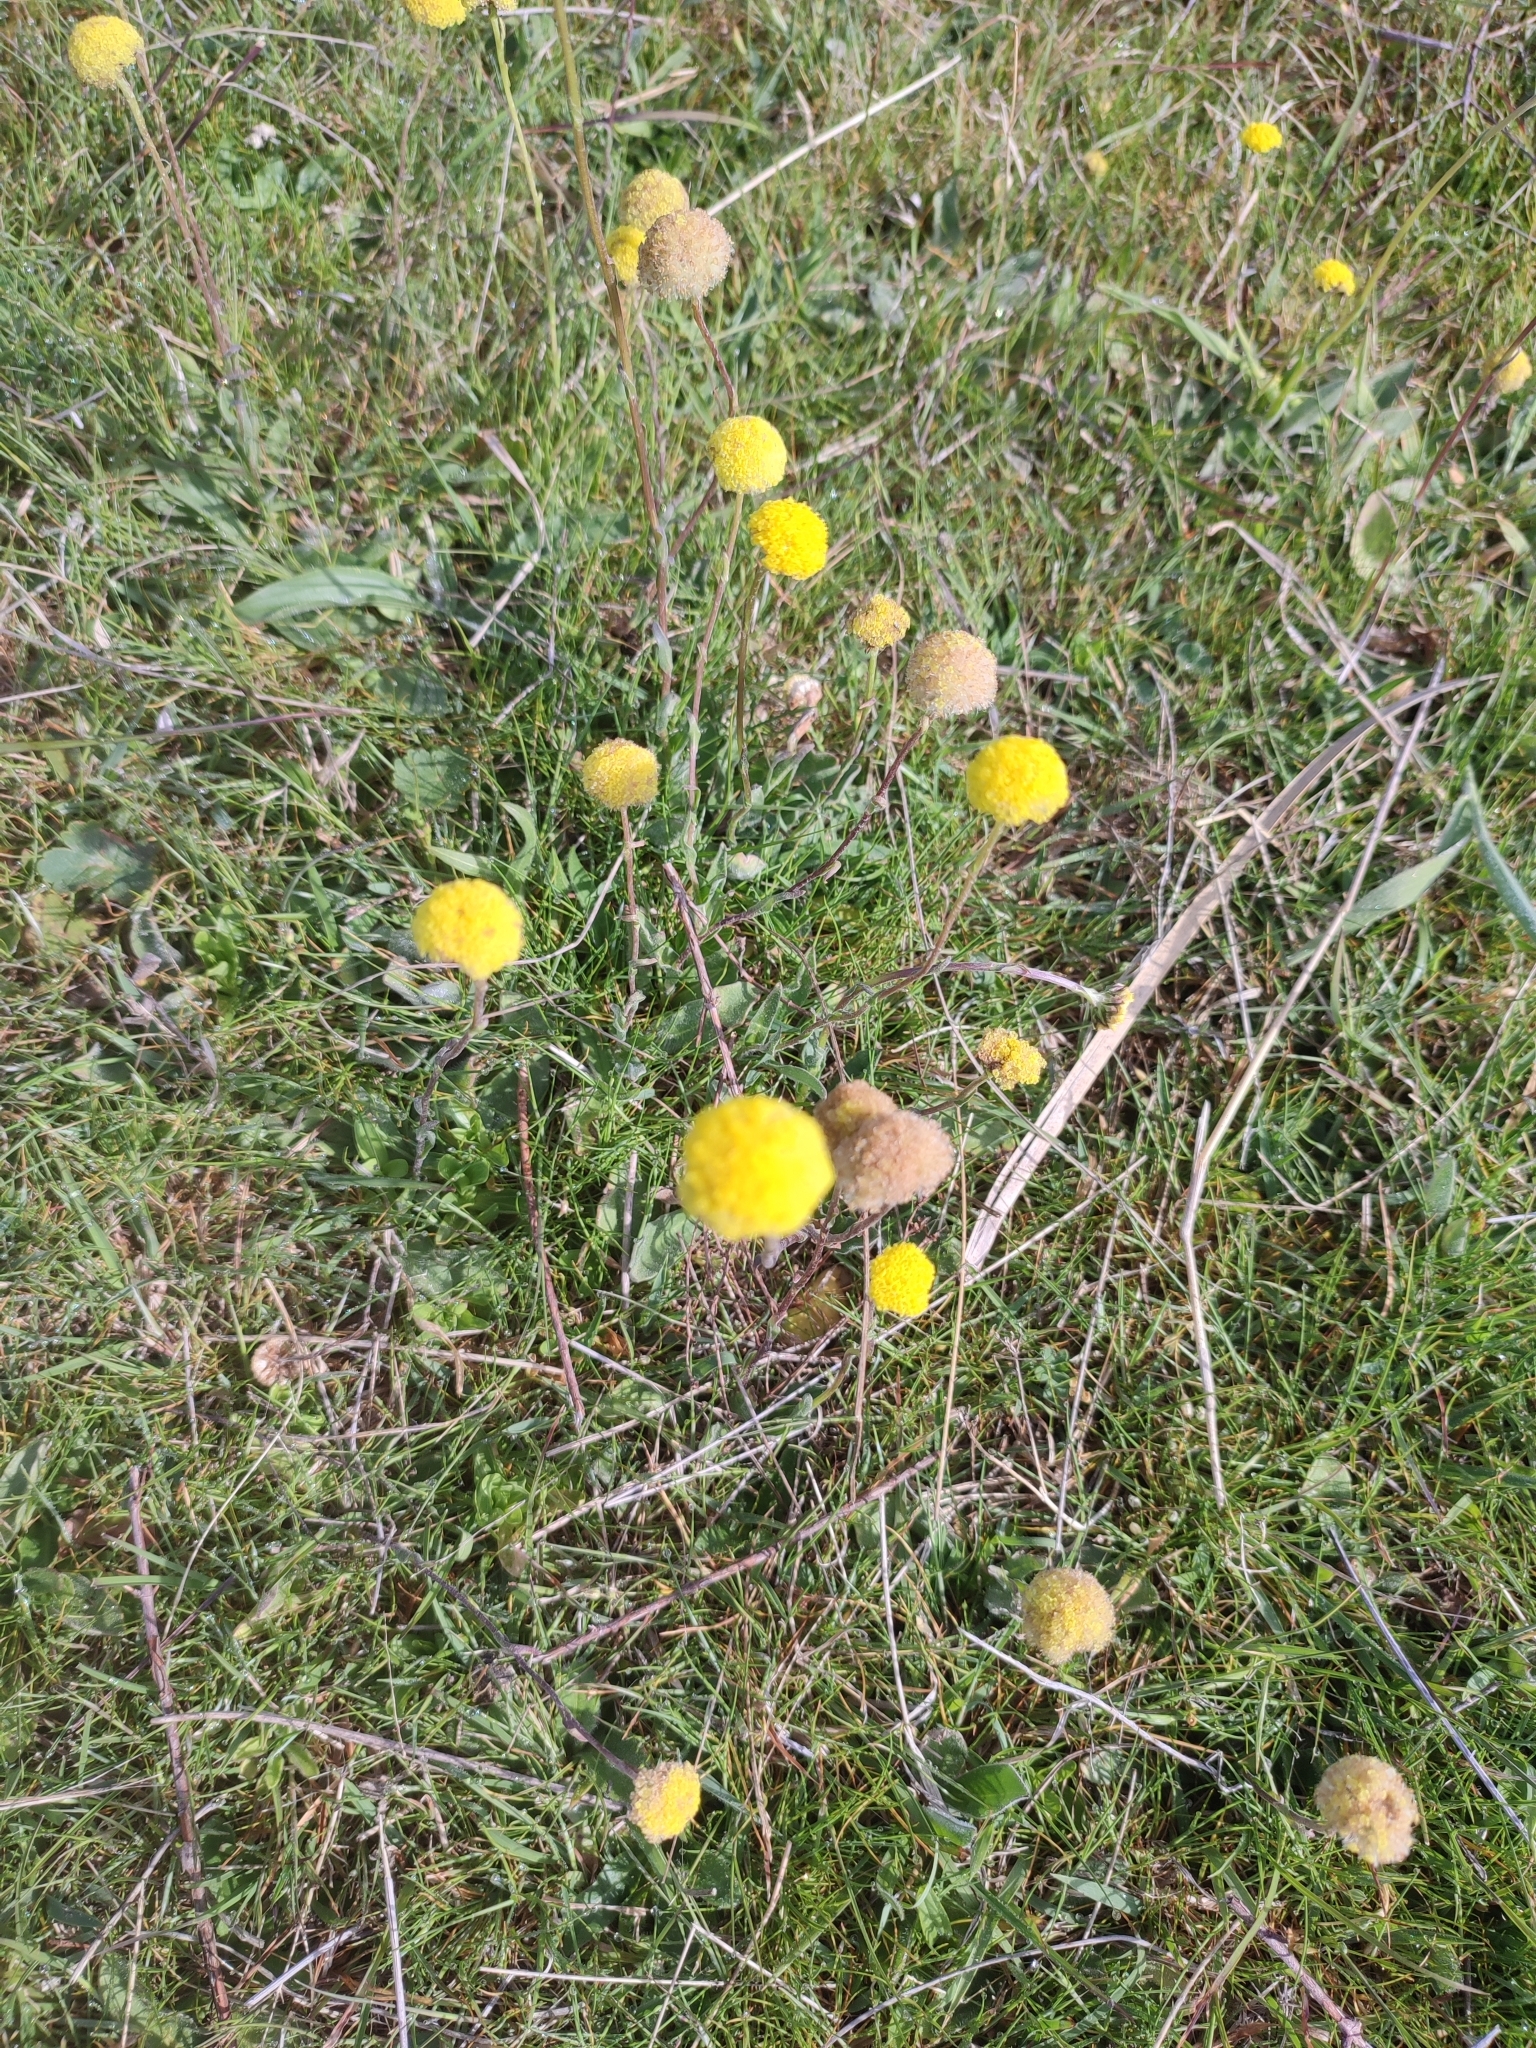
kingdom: Plantae
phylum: Tracheophyta
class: Magnoliopsida
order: Asterales
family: Asteraceae
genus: Craspedia
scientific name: Craspedia variabilis
